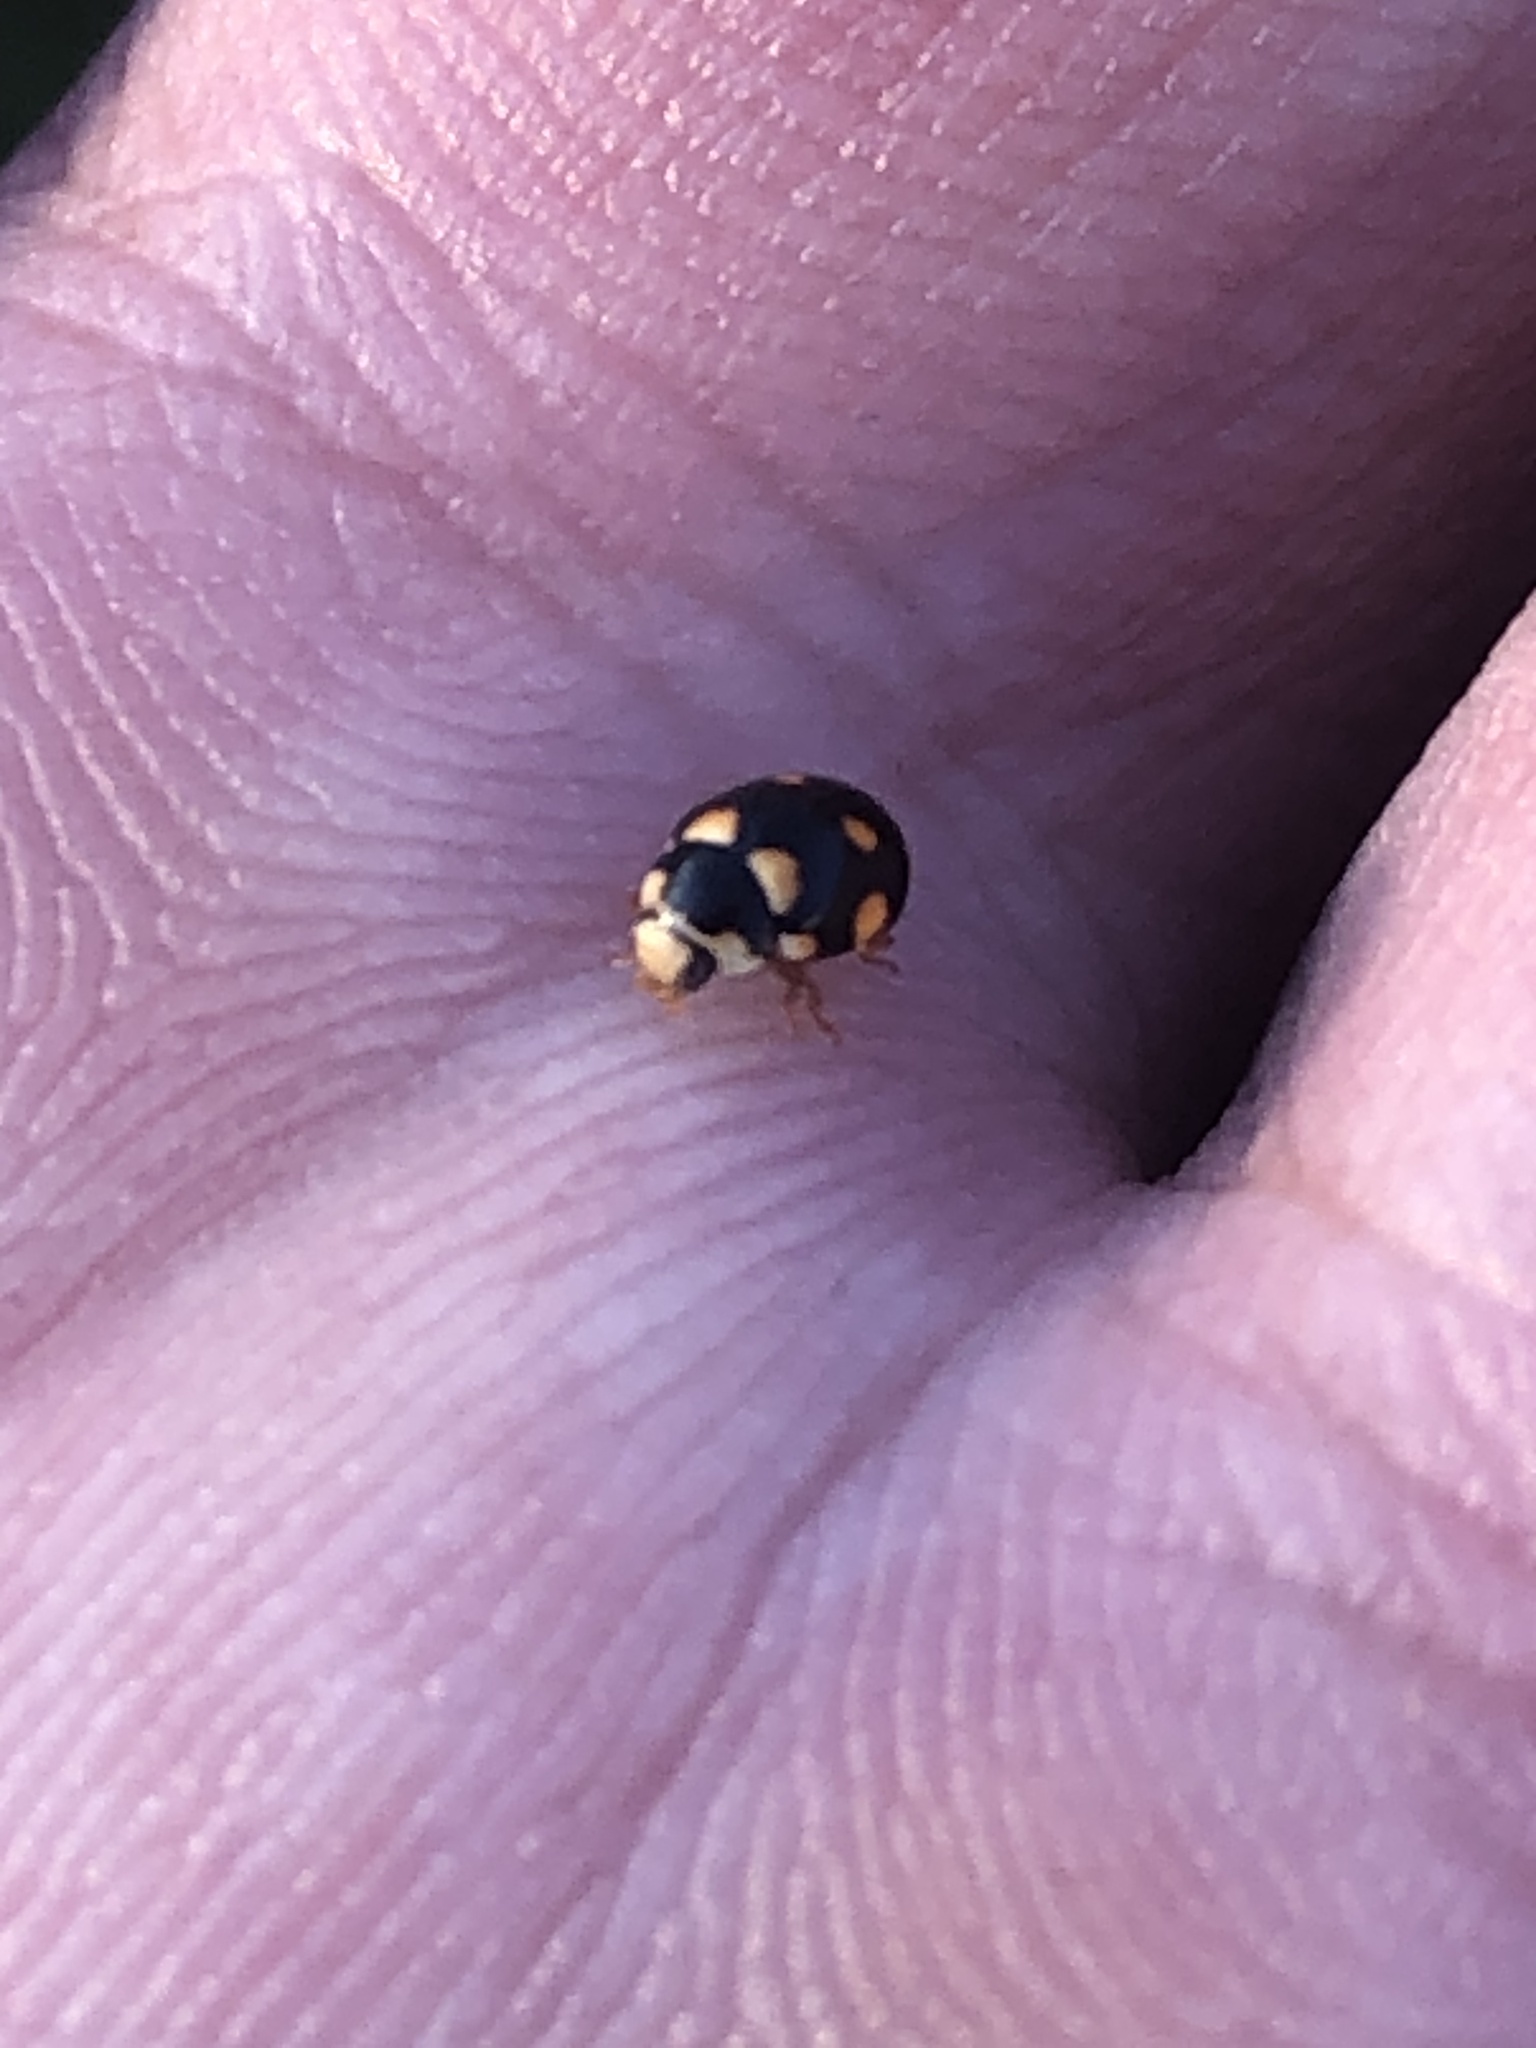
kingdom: Animalia
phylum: Arthropoda
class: Insecta
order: Coleoptera
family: Coccinellidae
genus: Brachiacantha
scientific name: Brachiacantha ursina
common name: Ursine spurleg lady beetle
